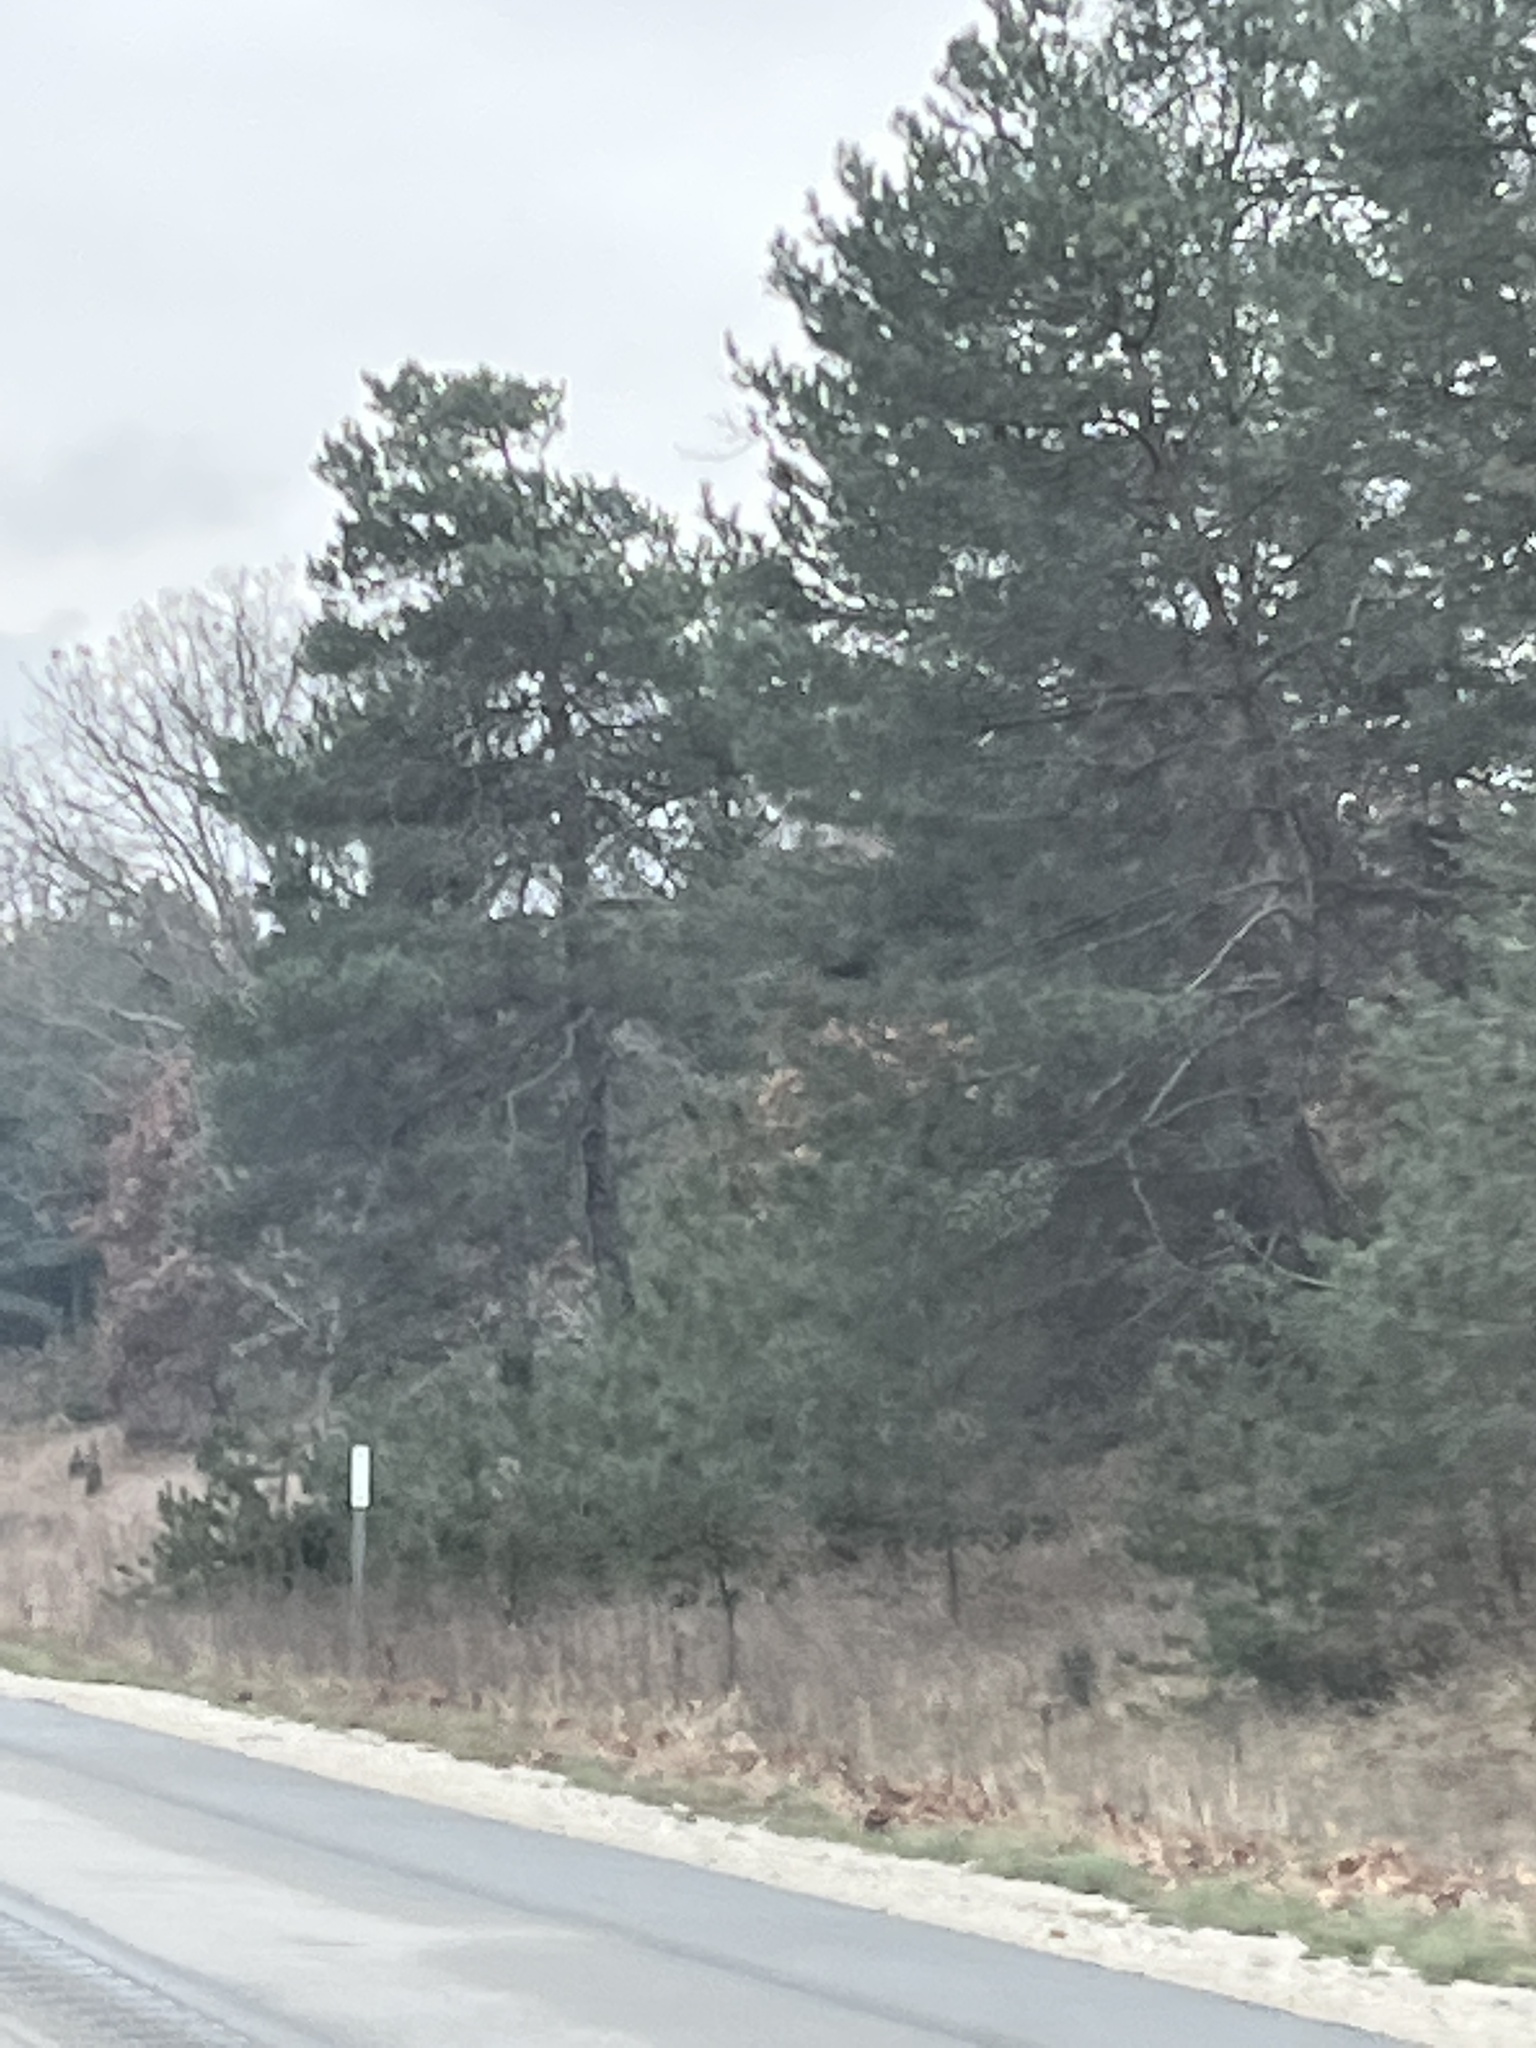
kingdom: Plantae
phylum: Tracheophyta
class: Pinopsida
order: Pinales
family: Pinaceae
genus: Pinus
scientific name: Pinus strobus
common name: Weymouth pine
